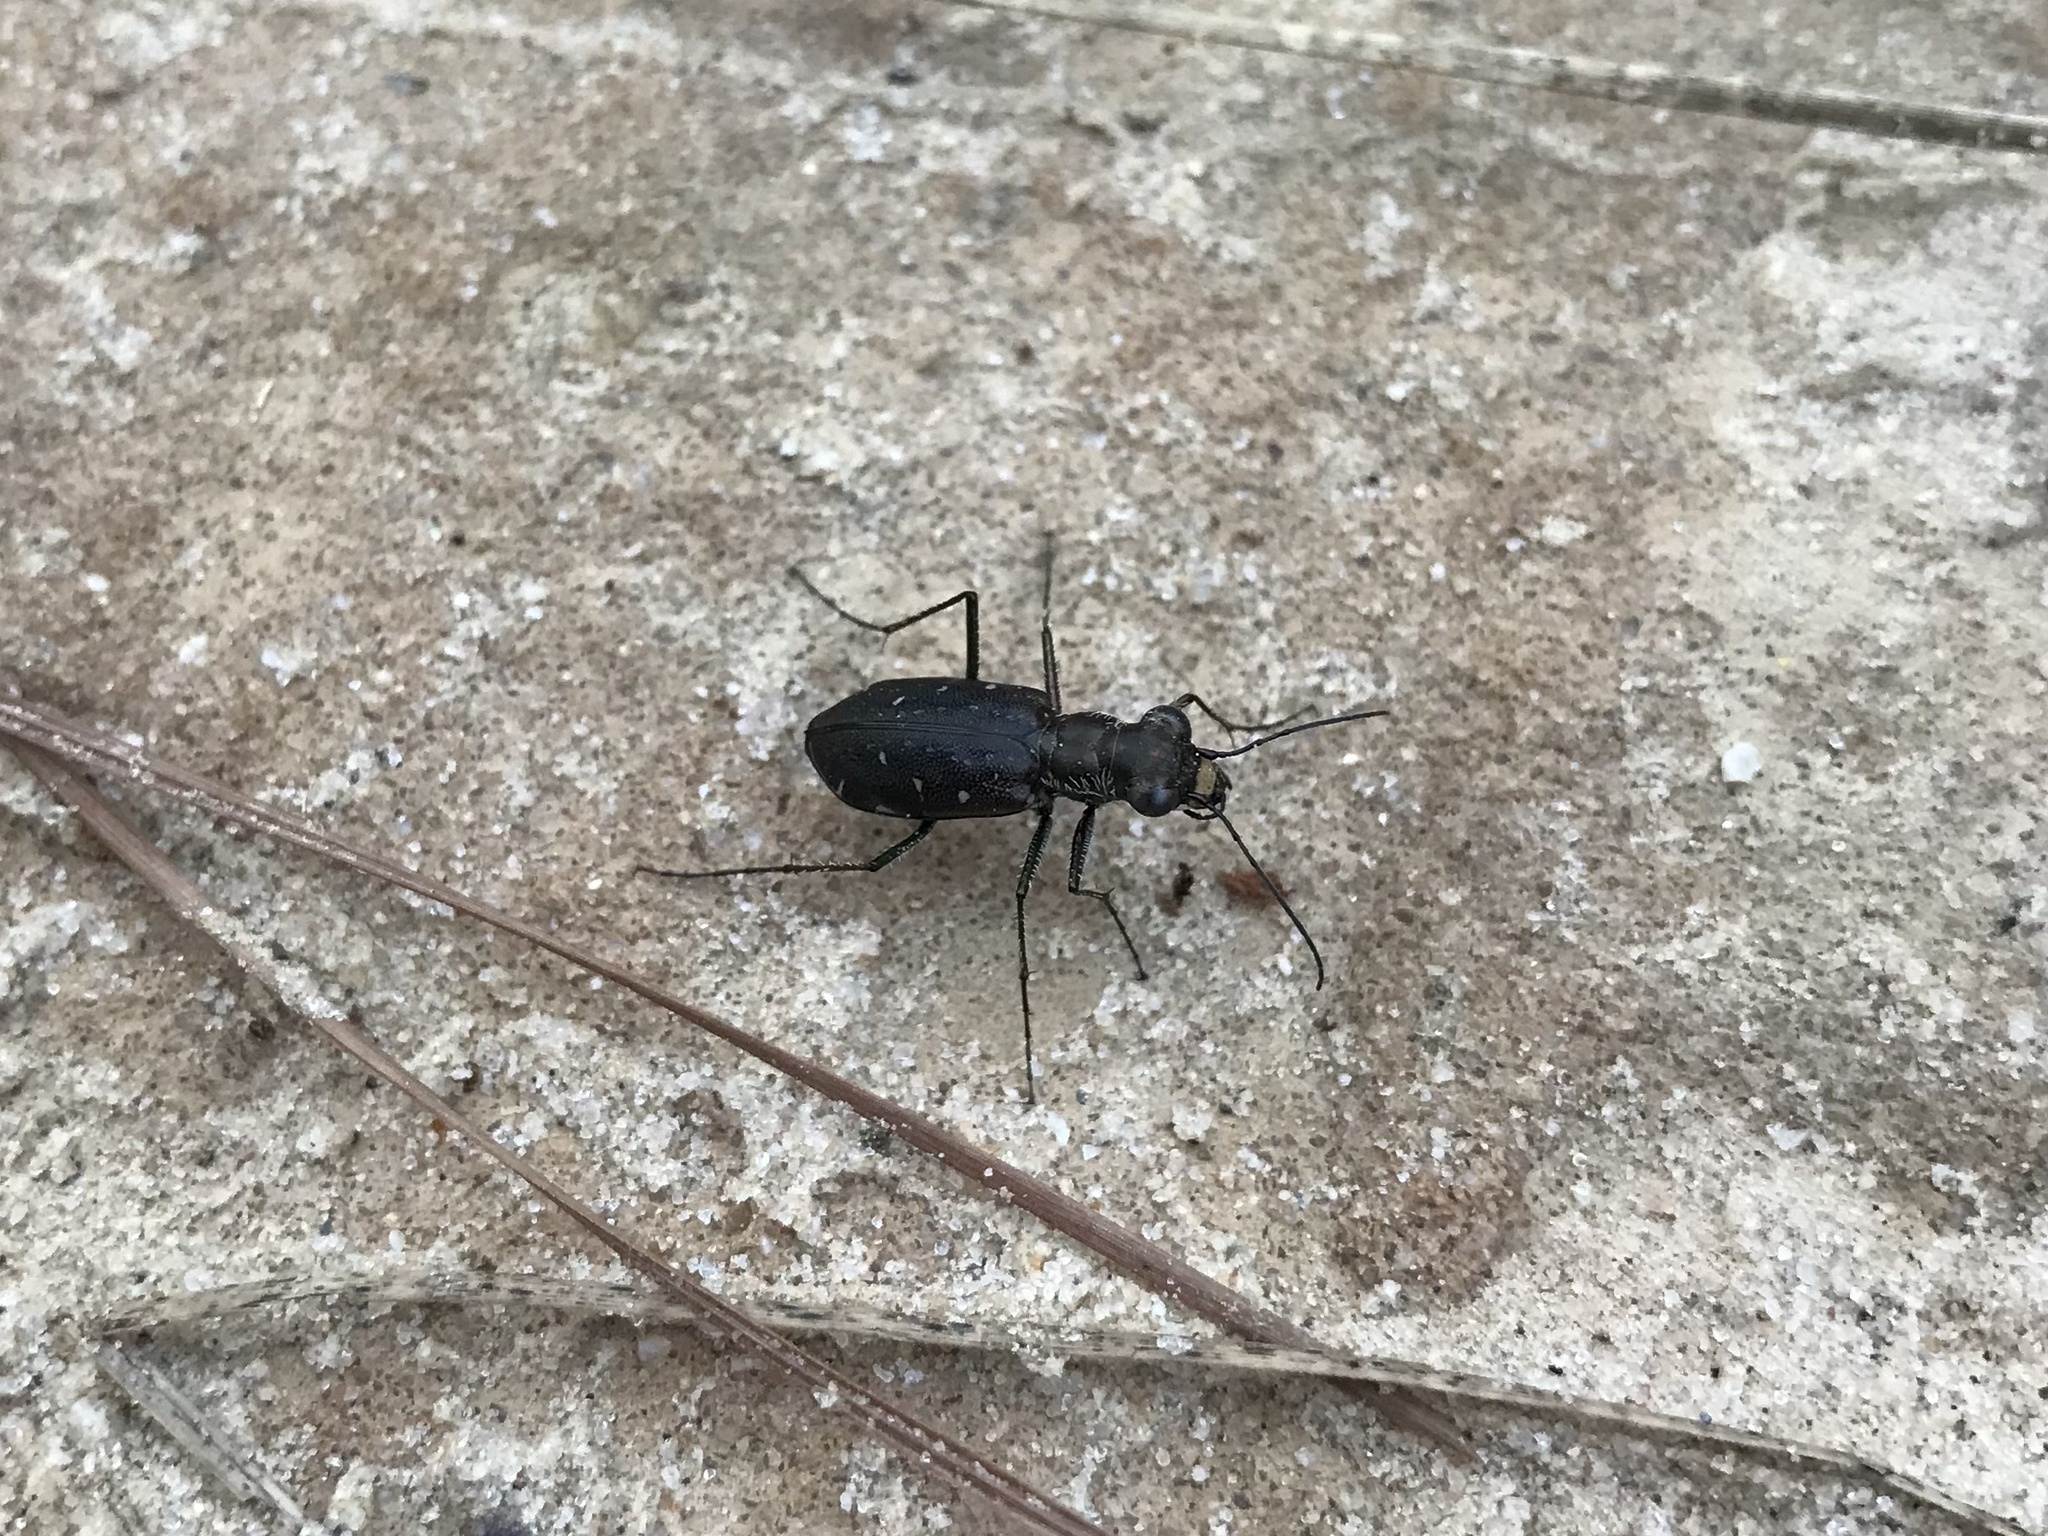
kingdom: Animalia
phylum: Arthropoda
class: Insecta
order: Coleoptera
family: Carabidae
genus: Cicindela
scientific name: Cicindela punctulata
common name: Punctured tiger beetle
